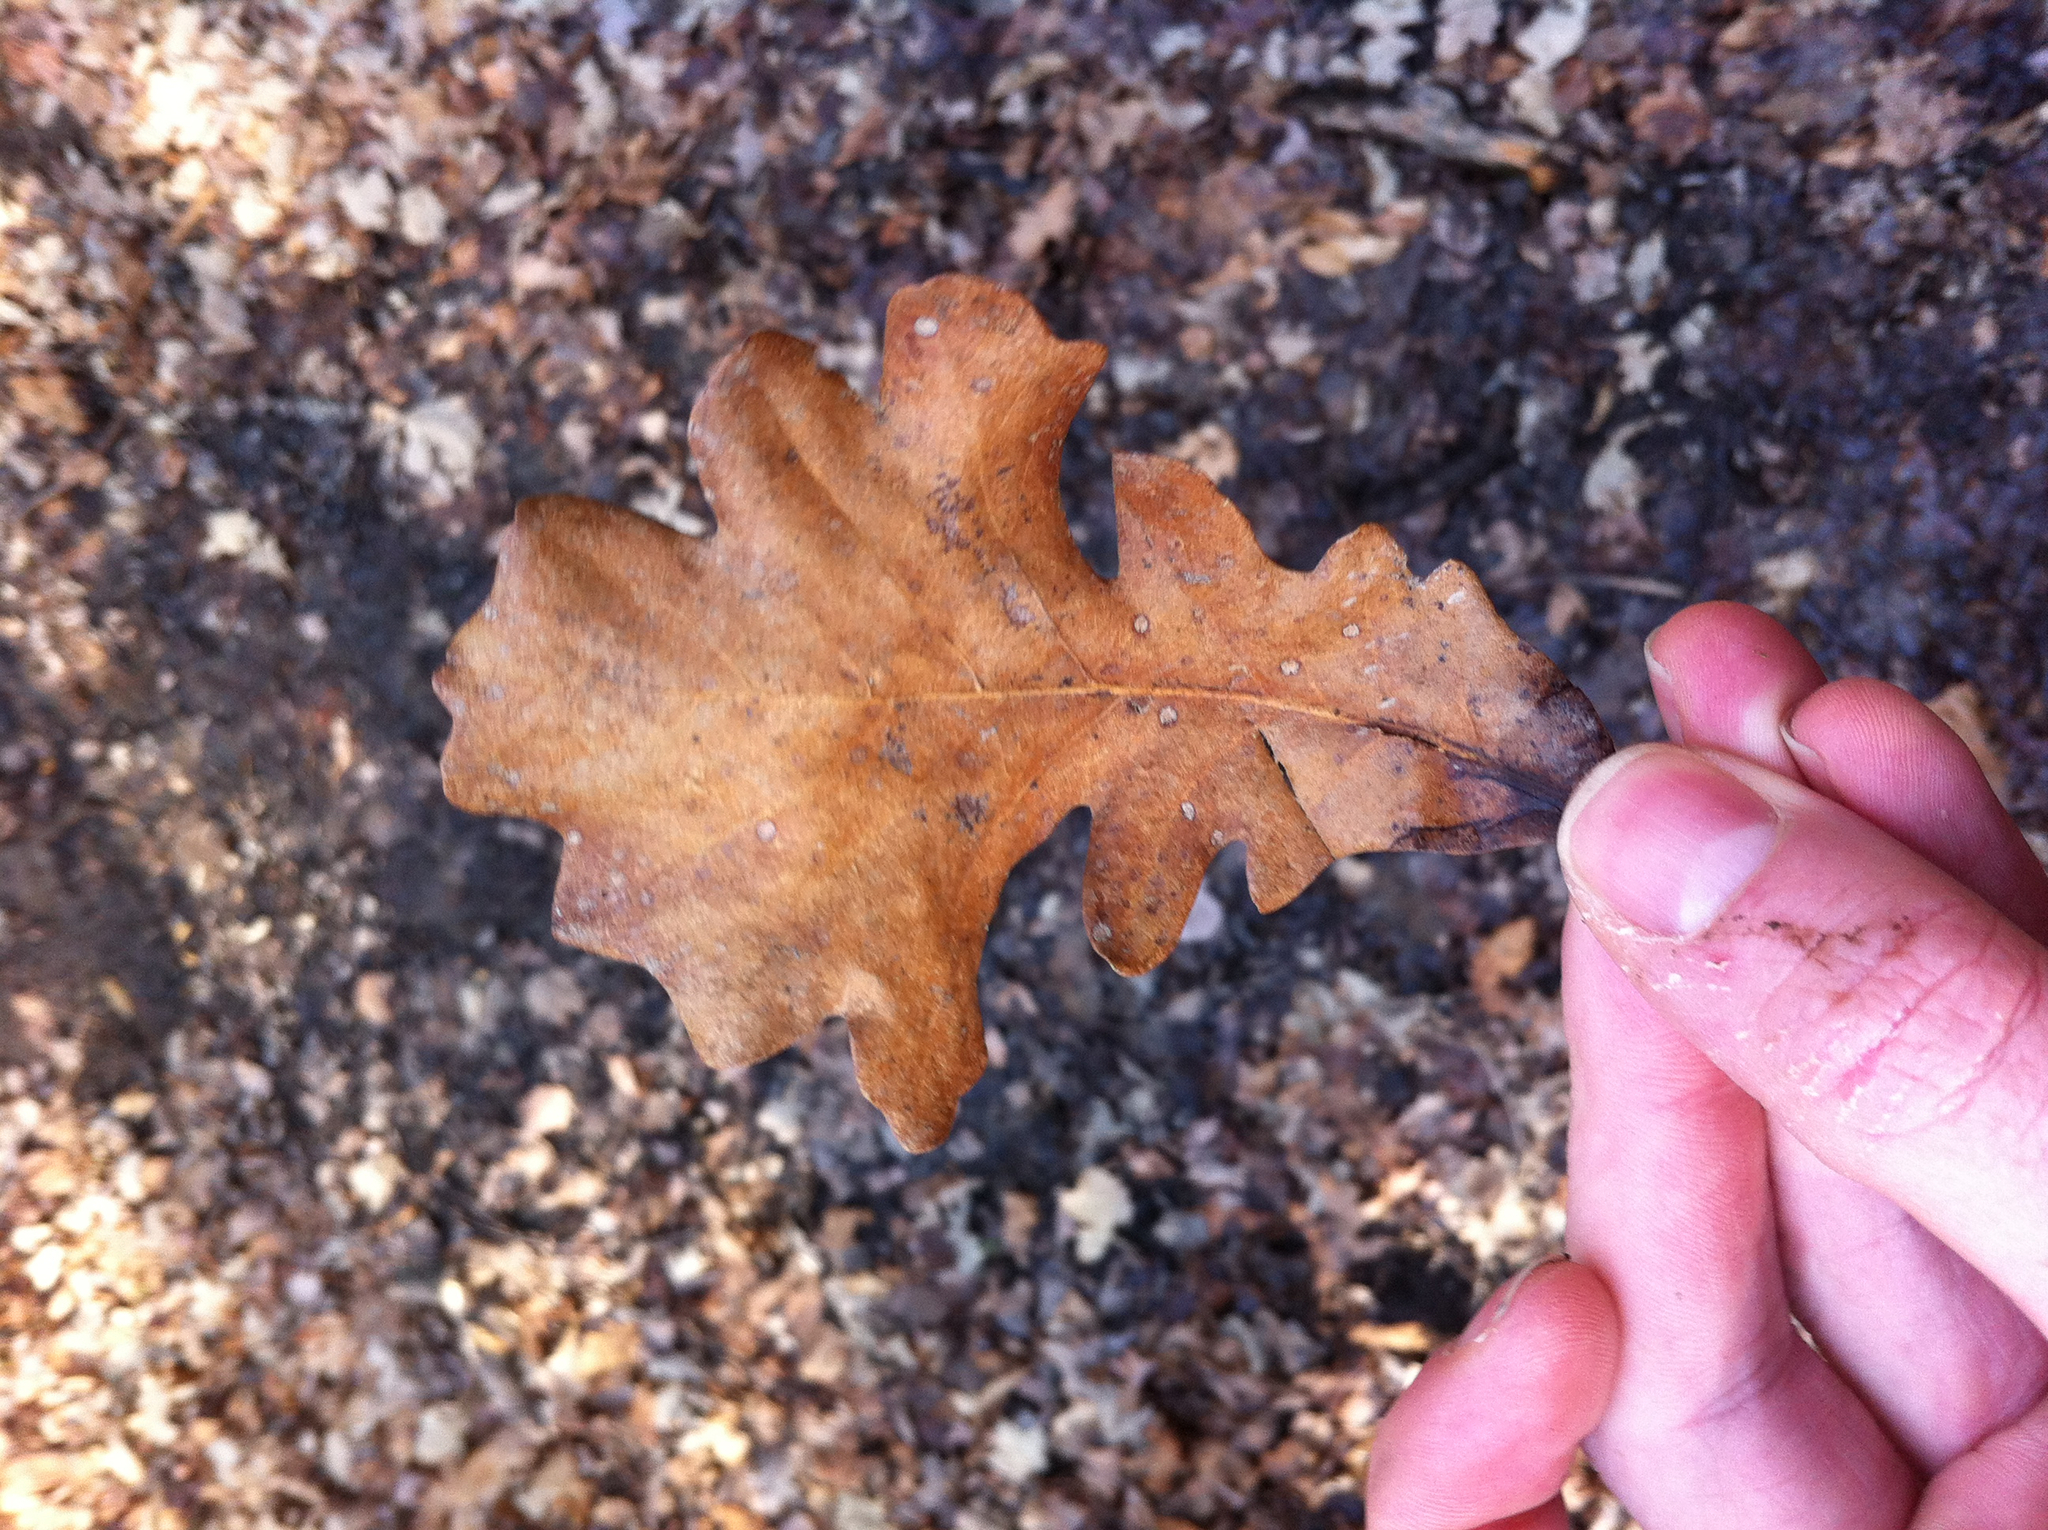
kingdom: Plantae
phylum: Tracheophyta
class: Magnoliopsida
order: Fagales
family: Fagaceae
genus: Quercus
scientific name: Quercus macrocarpa
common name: Bur oak
